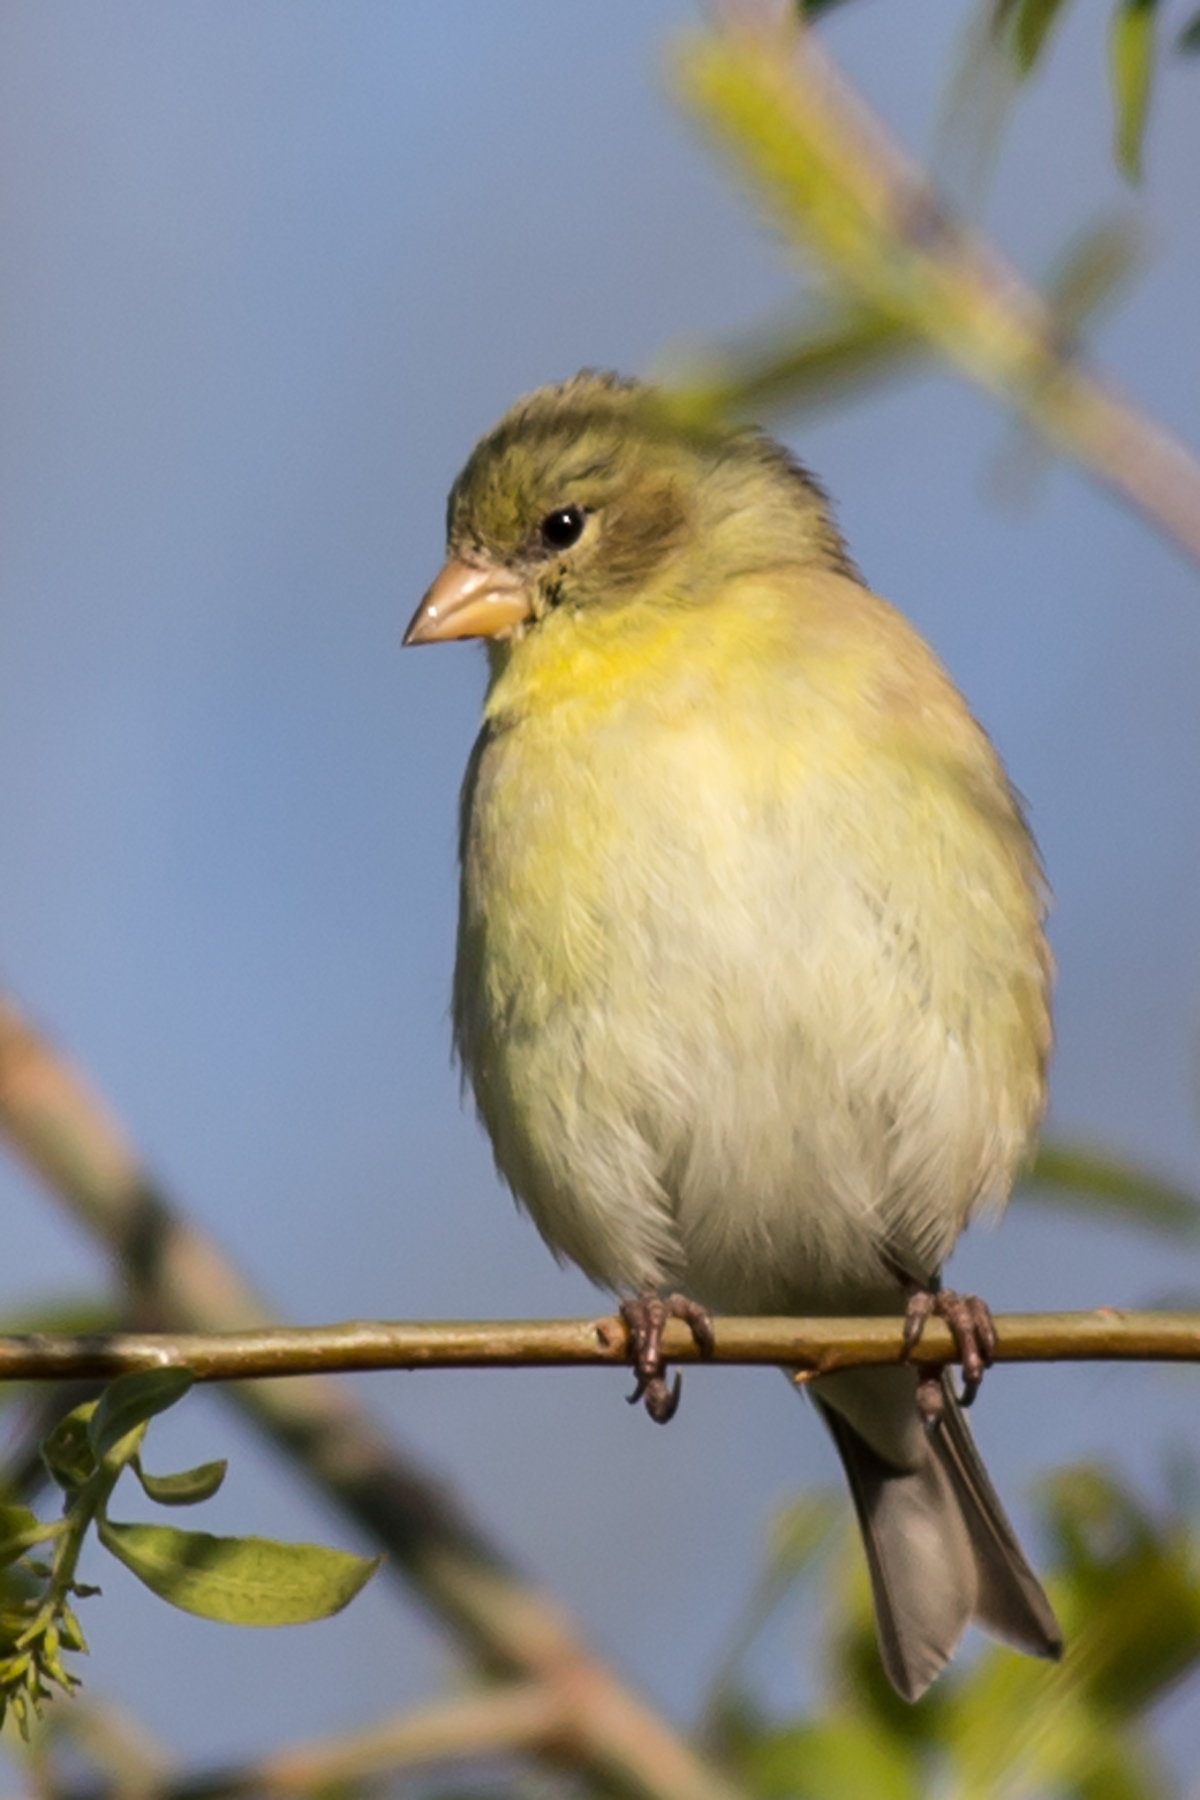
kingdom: Animalia
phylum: Chordata
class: Aves
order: Passeriformes
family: Fringillidae
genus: Spinus
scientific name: Spinus tristis
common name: American goldfinch
